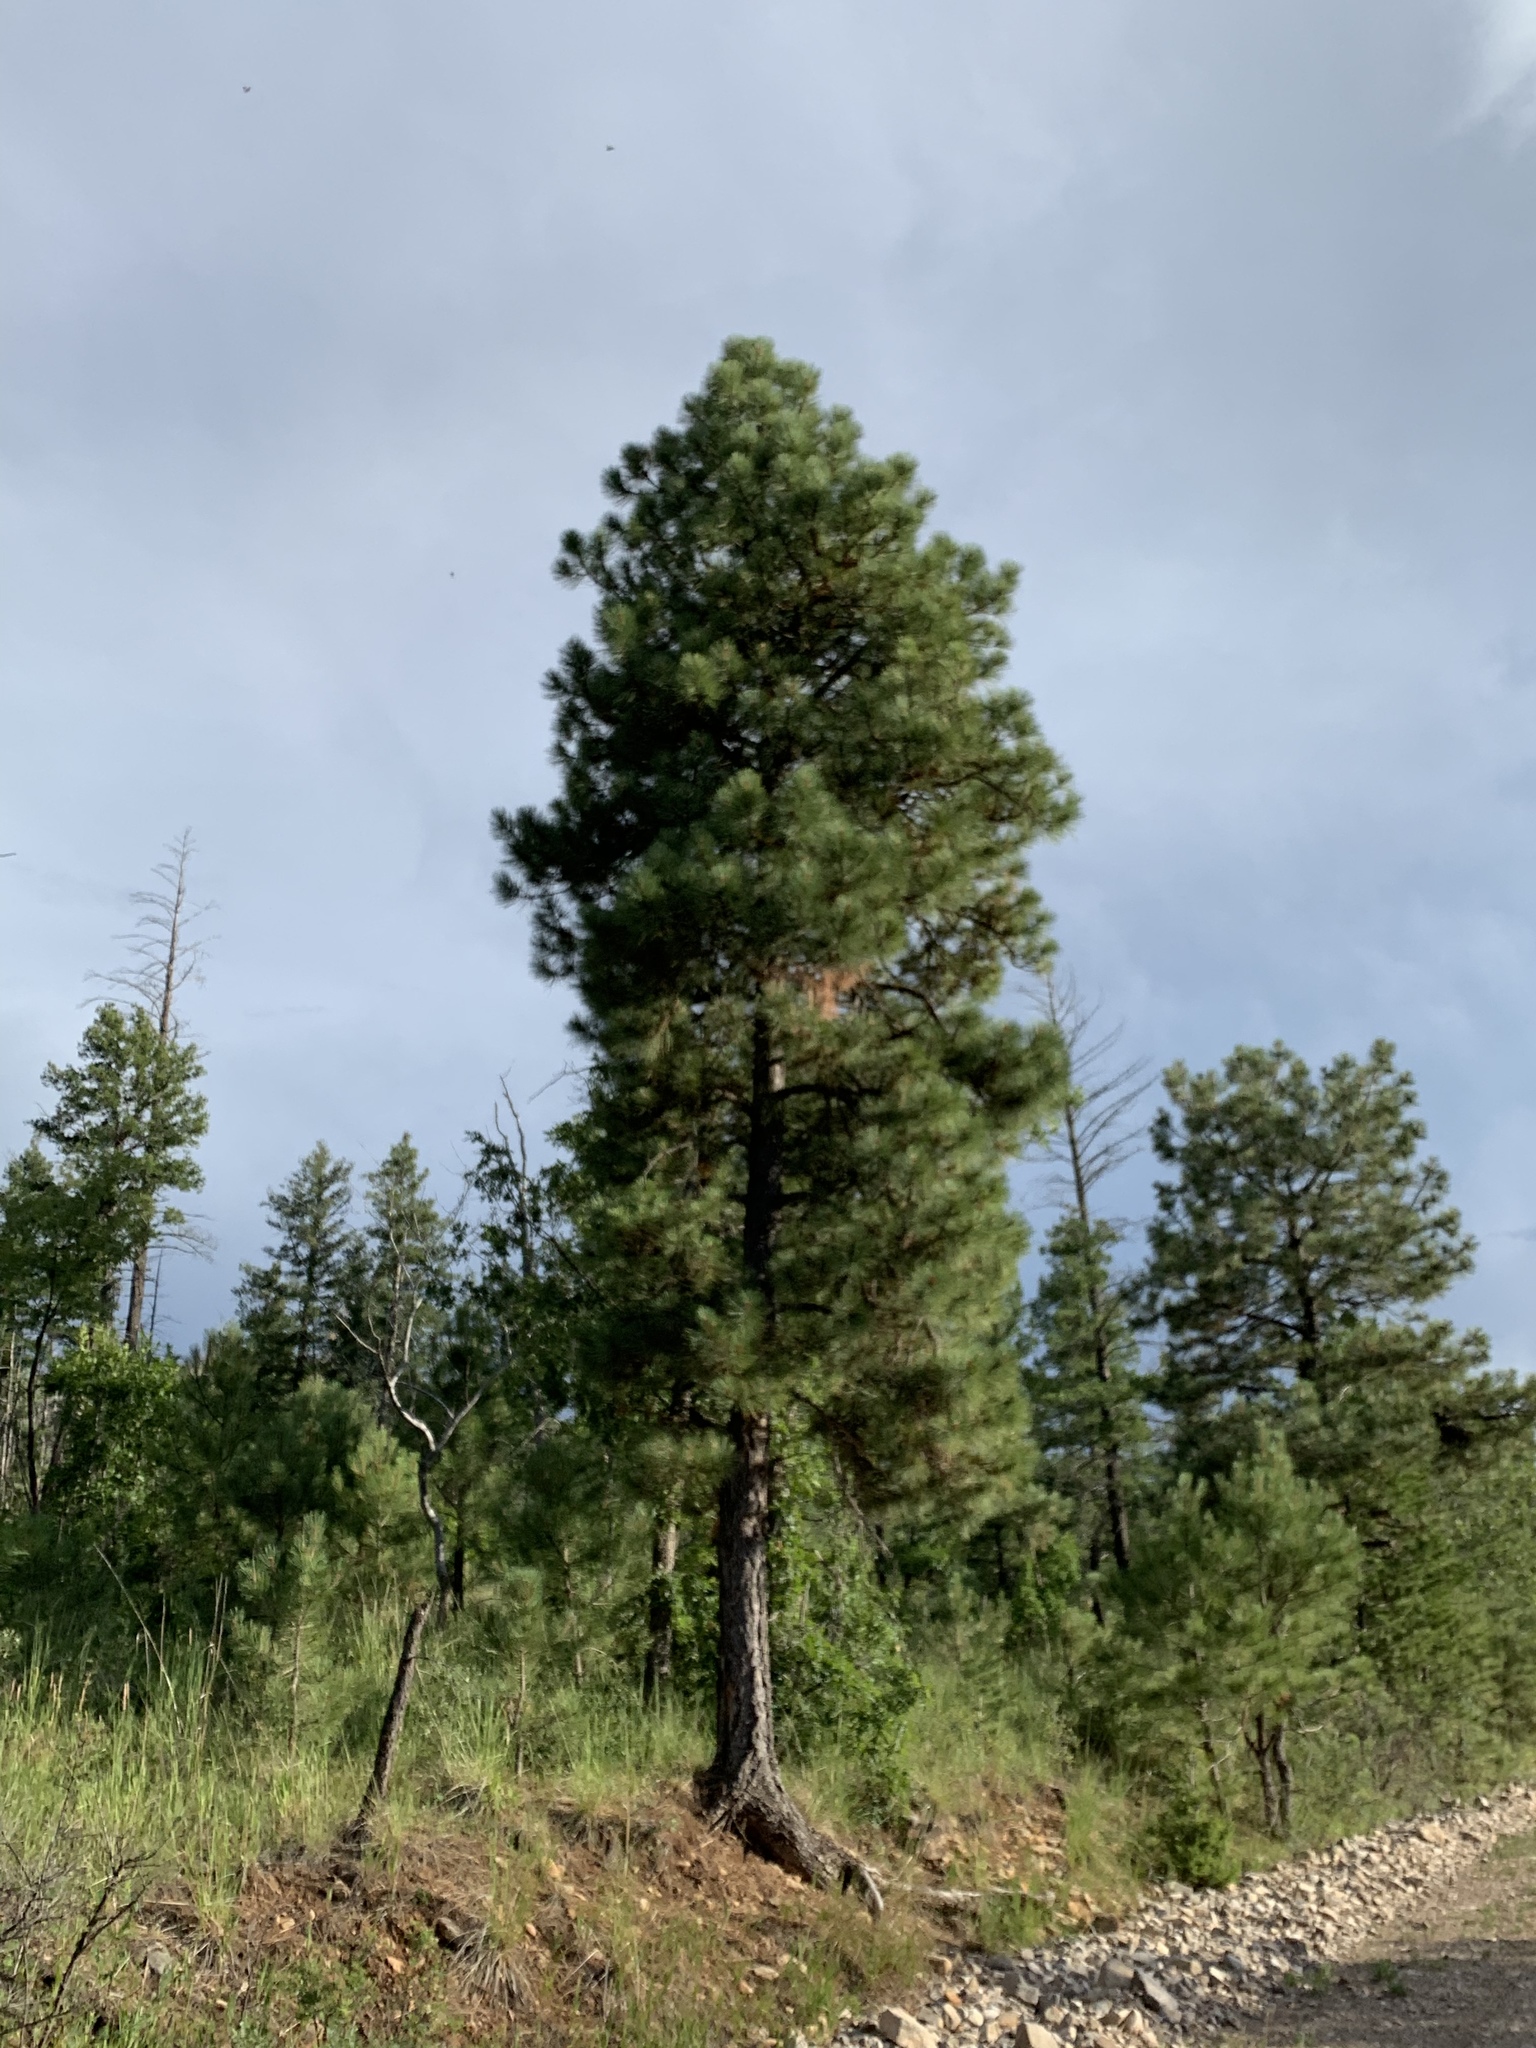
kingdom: Plantae
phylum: Tracheophyta
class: Pinopsida
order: Pinales
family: Pinaceae
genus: Pinus
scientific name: Pinus ponderosa
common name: Western yellow-pine
